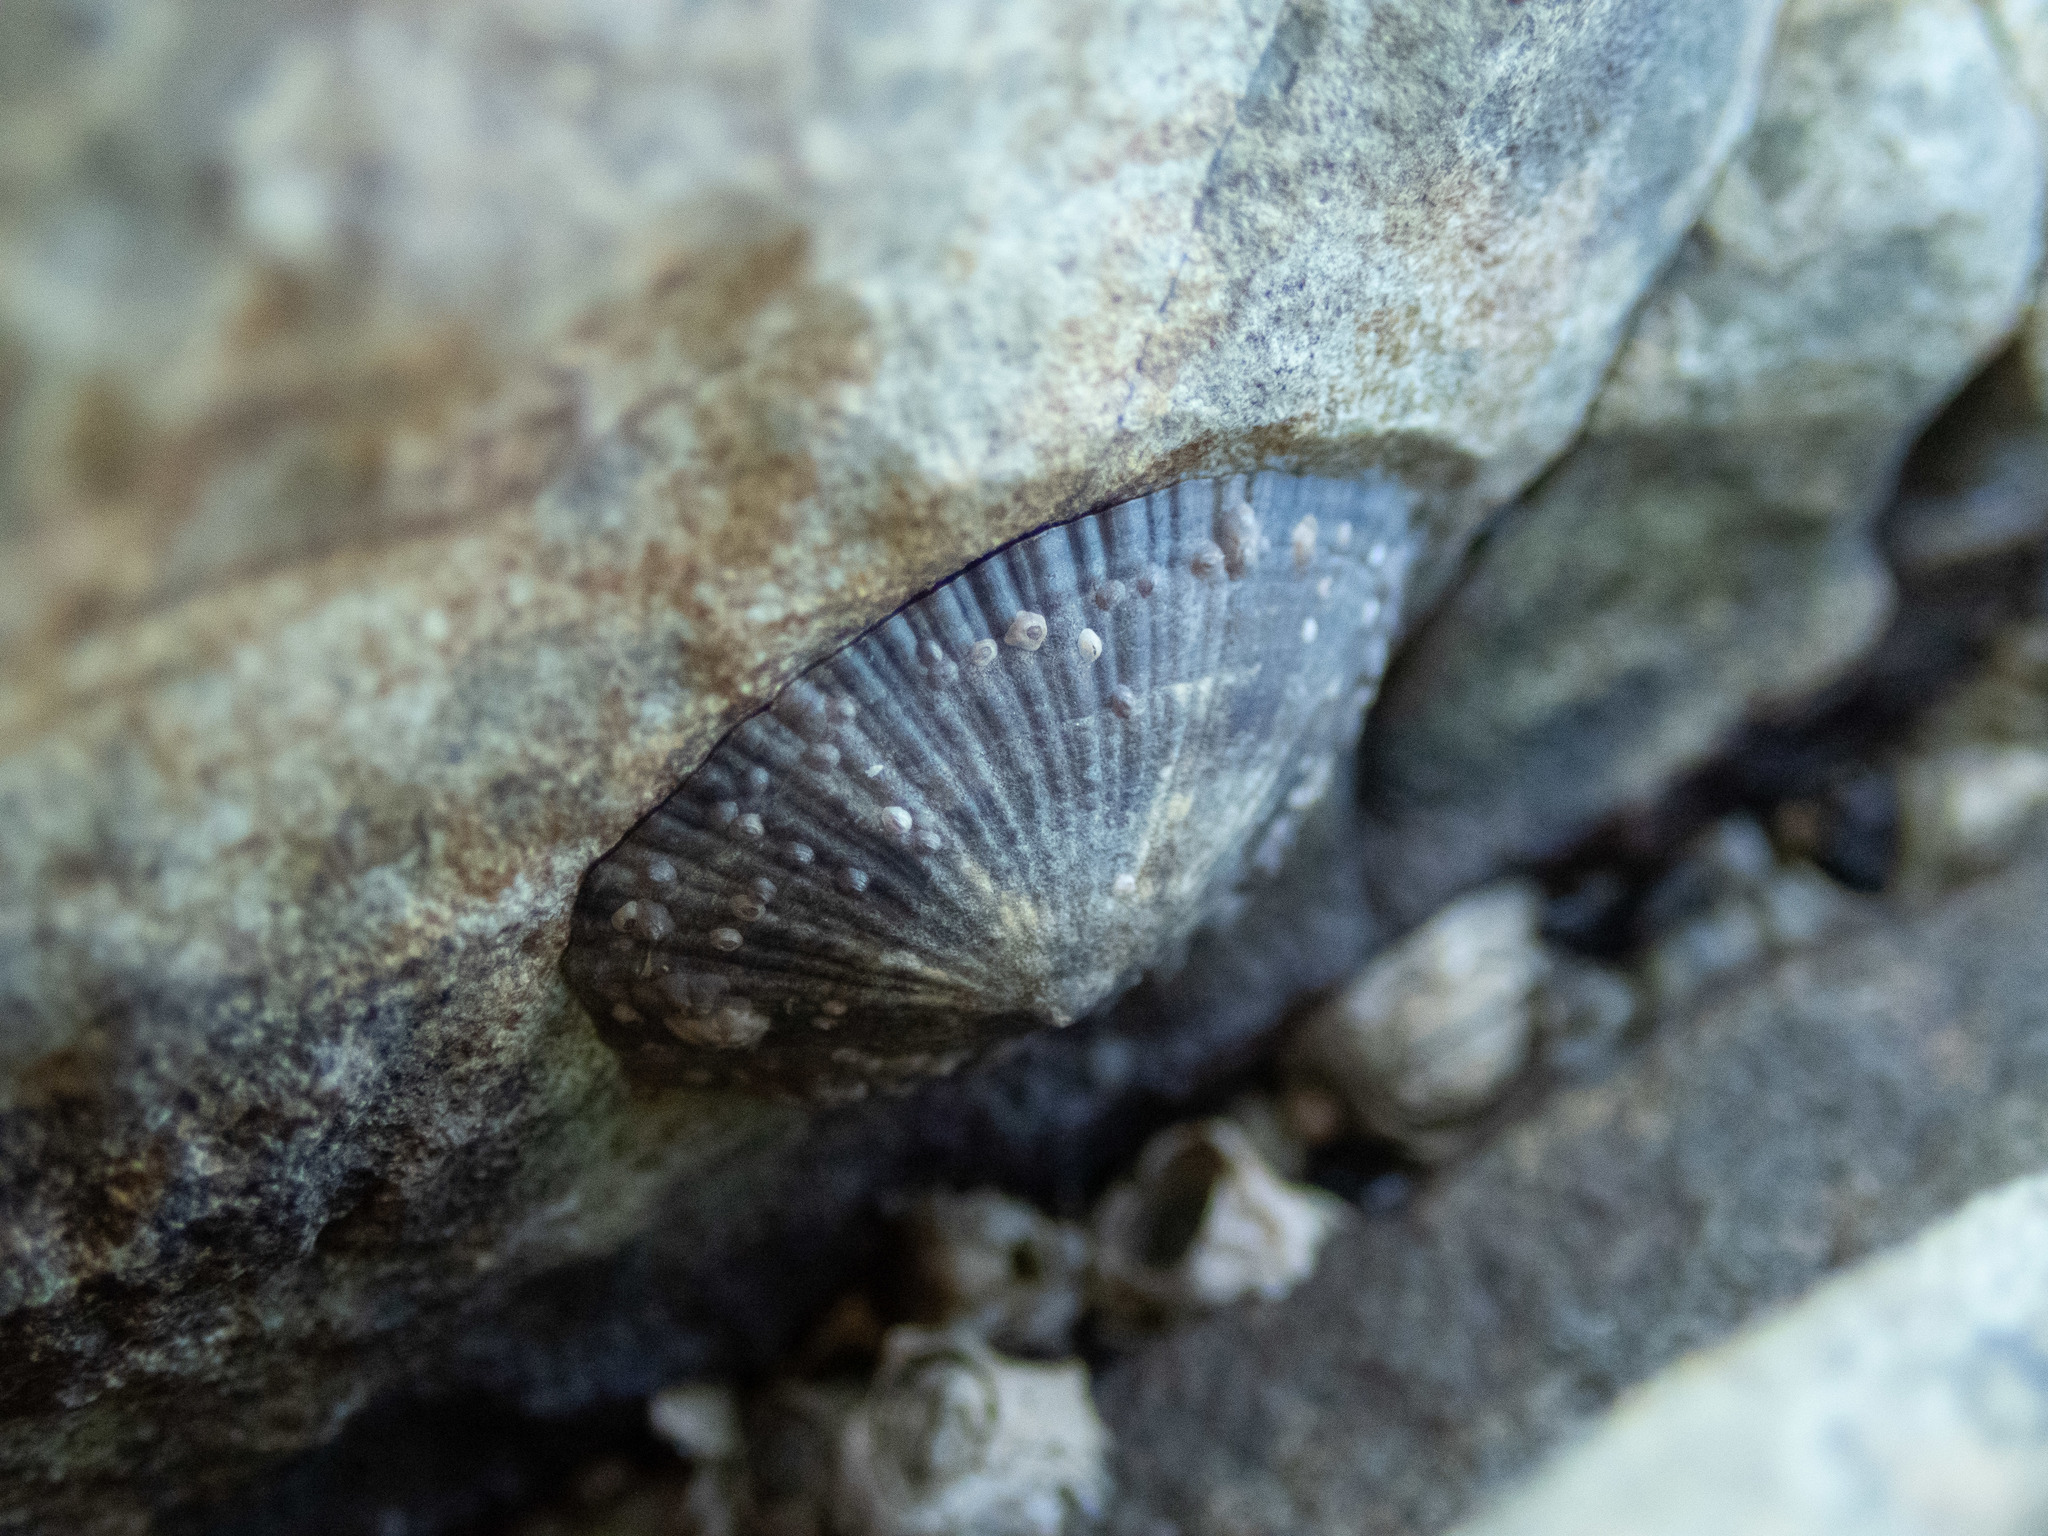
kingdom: Animalia
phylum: Mollusca
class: Gastropoda
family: Lottiidae
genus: Scurria
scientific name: Scurria stipulata
